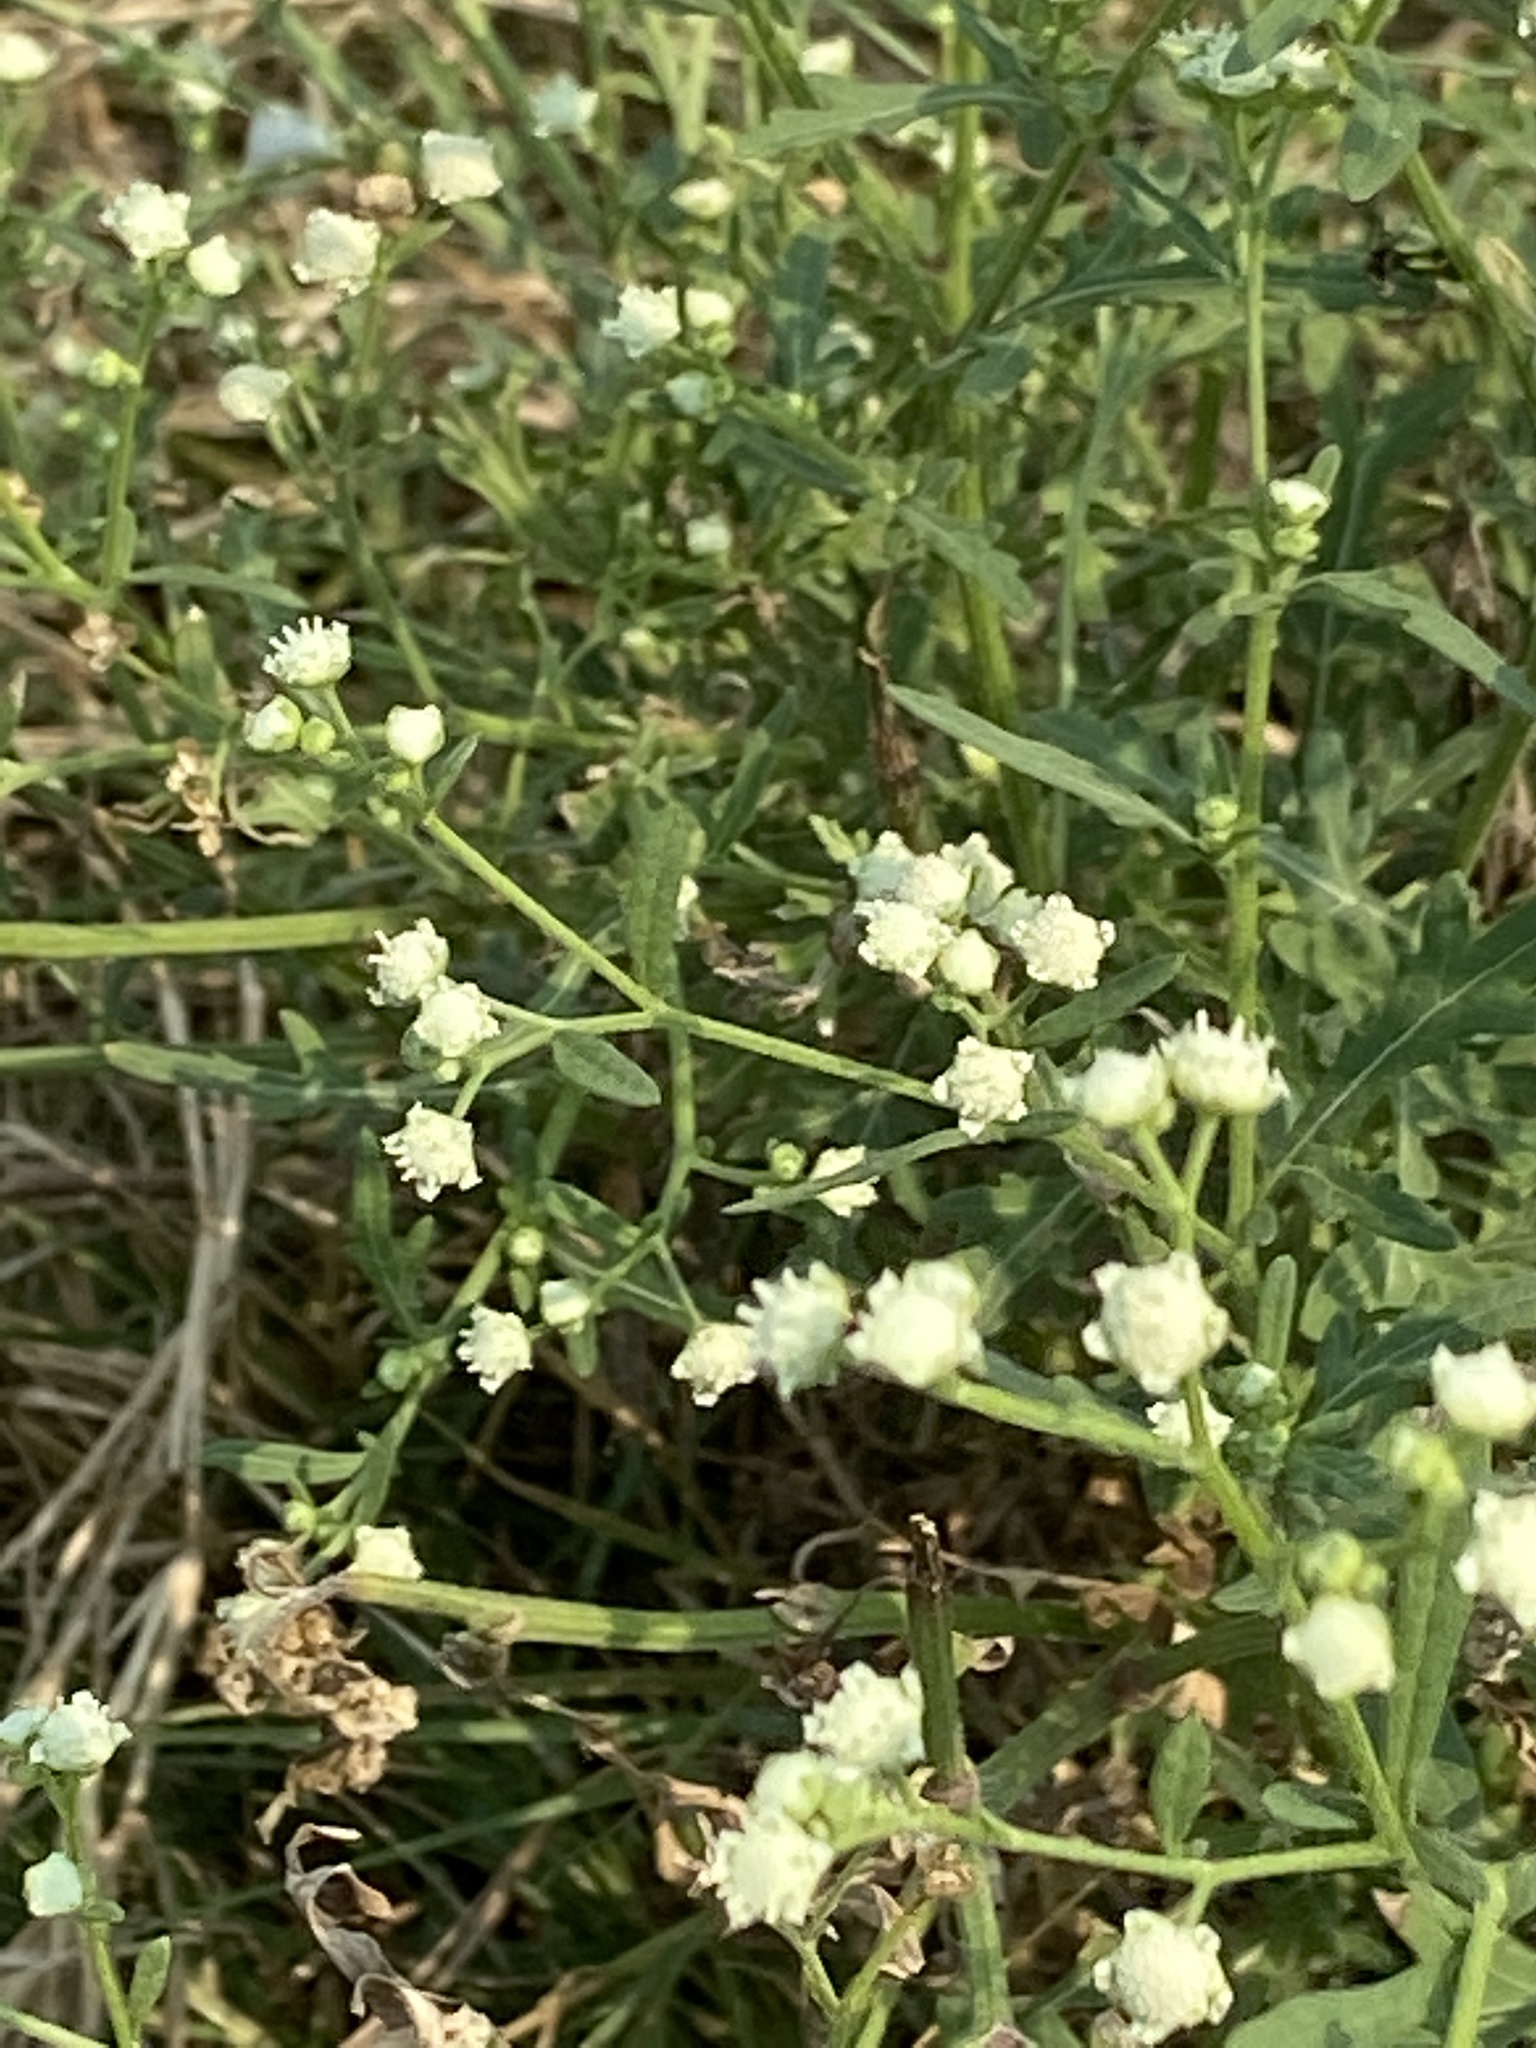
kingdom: Plantae
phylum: Tracheophyta
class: Magnoliopsida
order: Asterales
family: Asteraceae
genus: Parthenium
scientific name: Parthenium hysterophorus
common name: Santa maria feverfew
